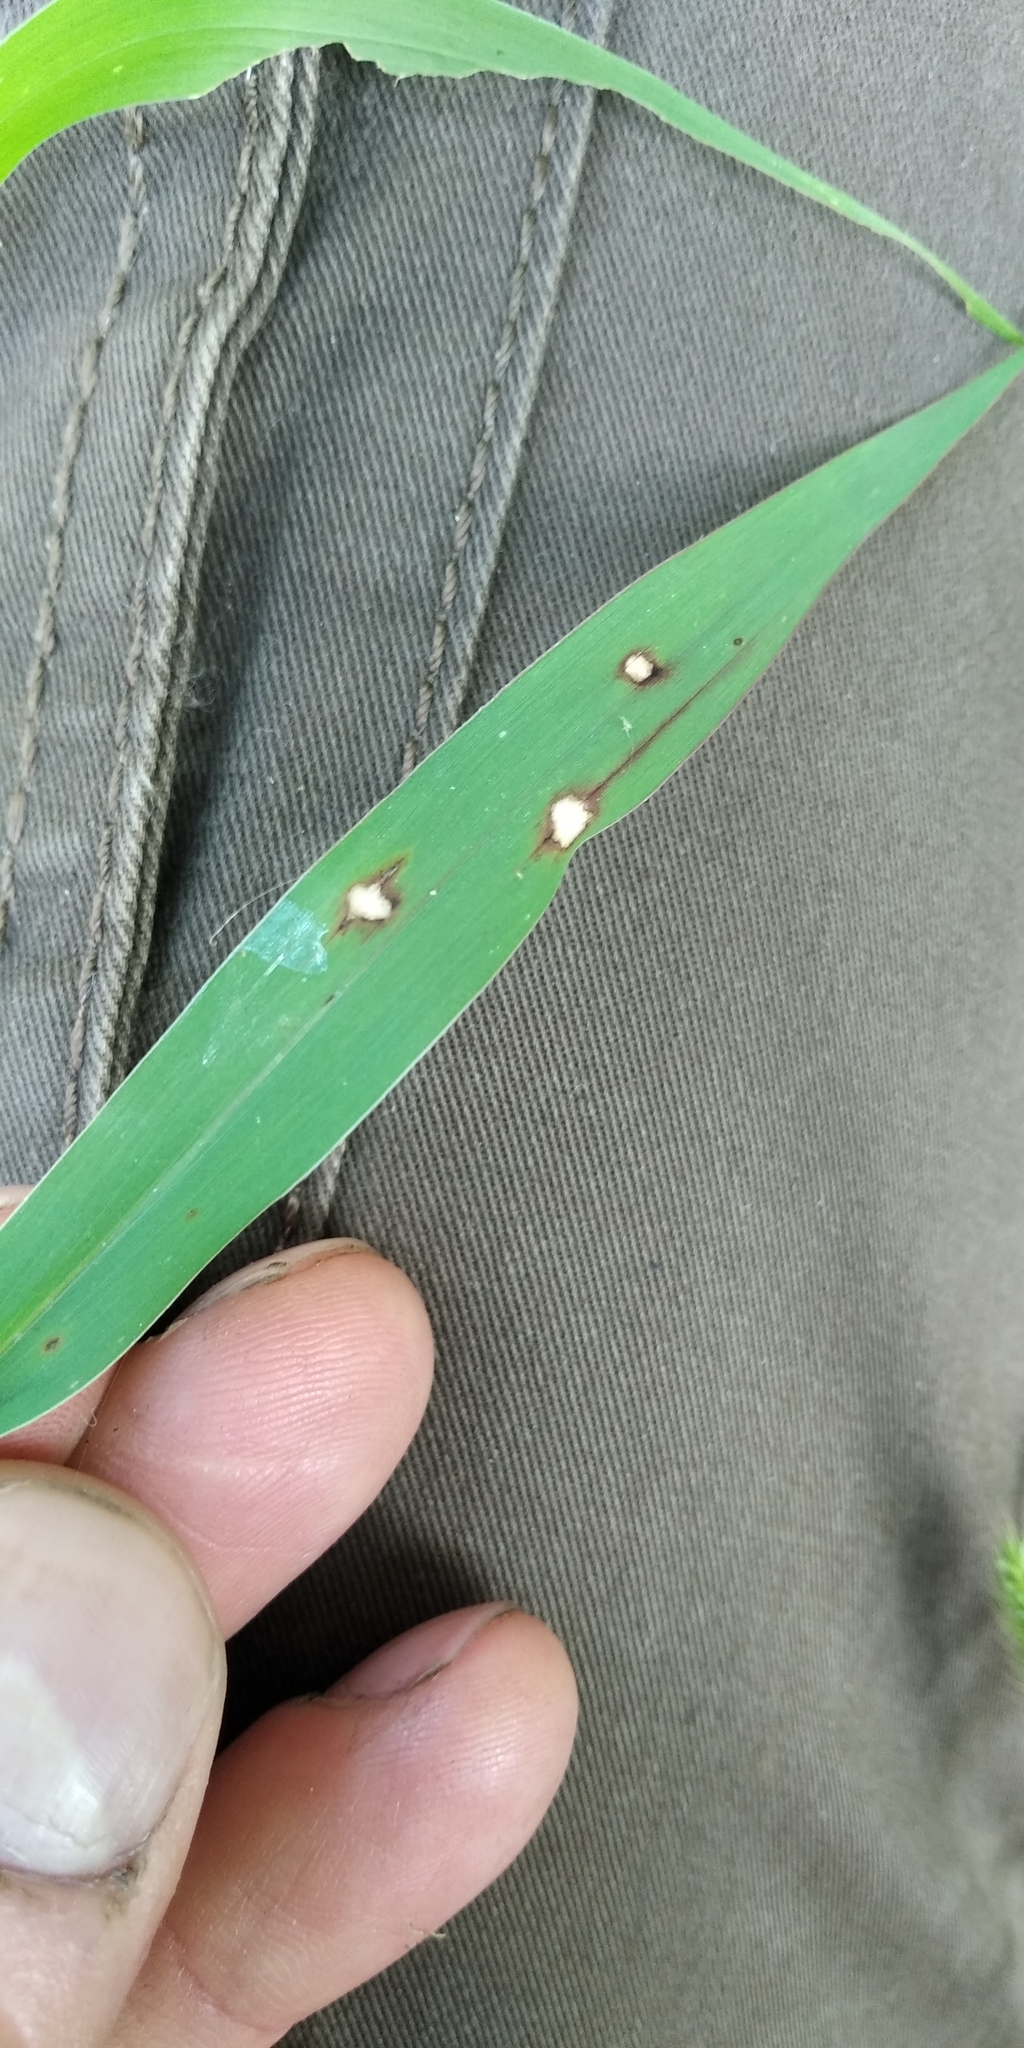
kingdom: Plantae
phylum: Tracheophyta
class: Liliopsida
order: Poales
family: Poaceae
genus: Setaria
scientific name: Setaria viridis
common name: Green bristlegrass
